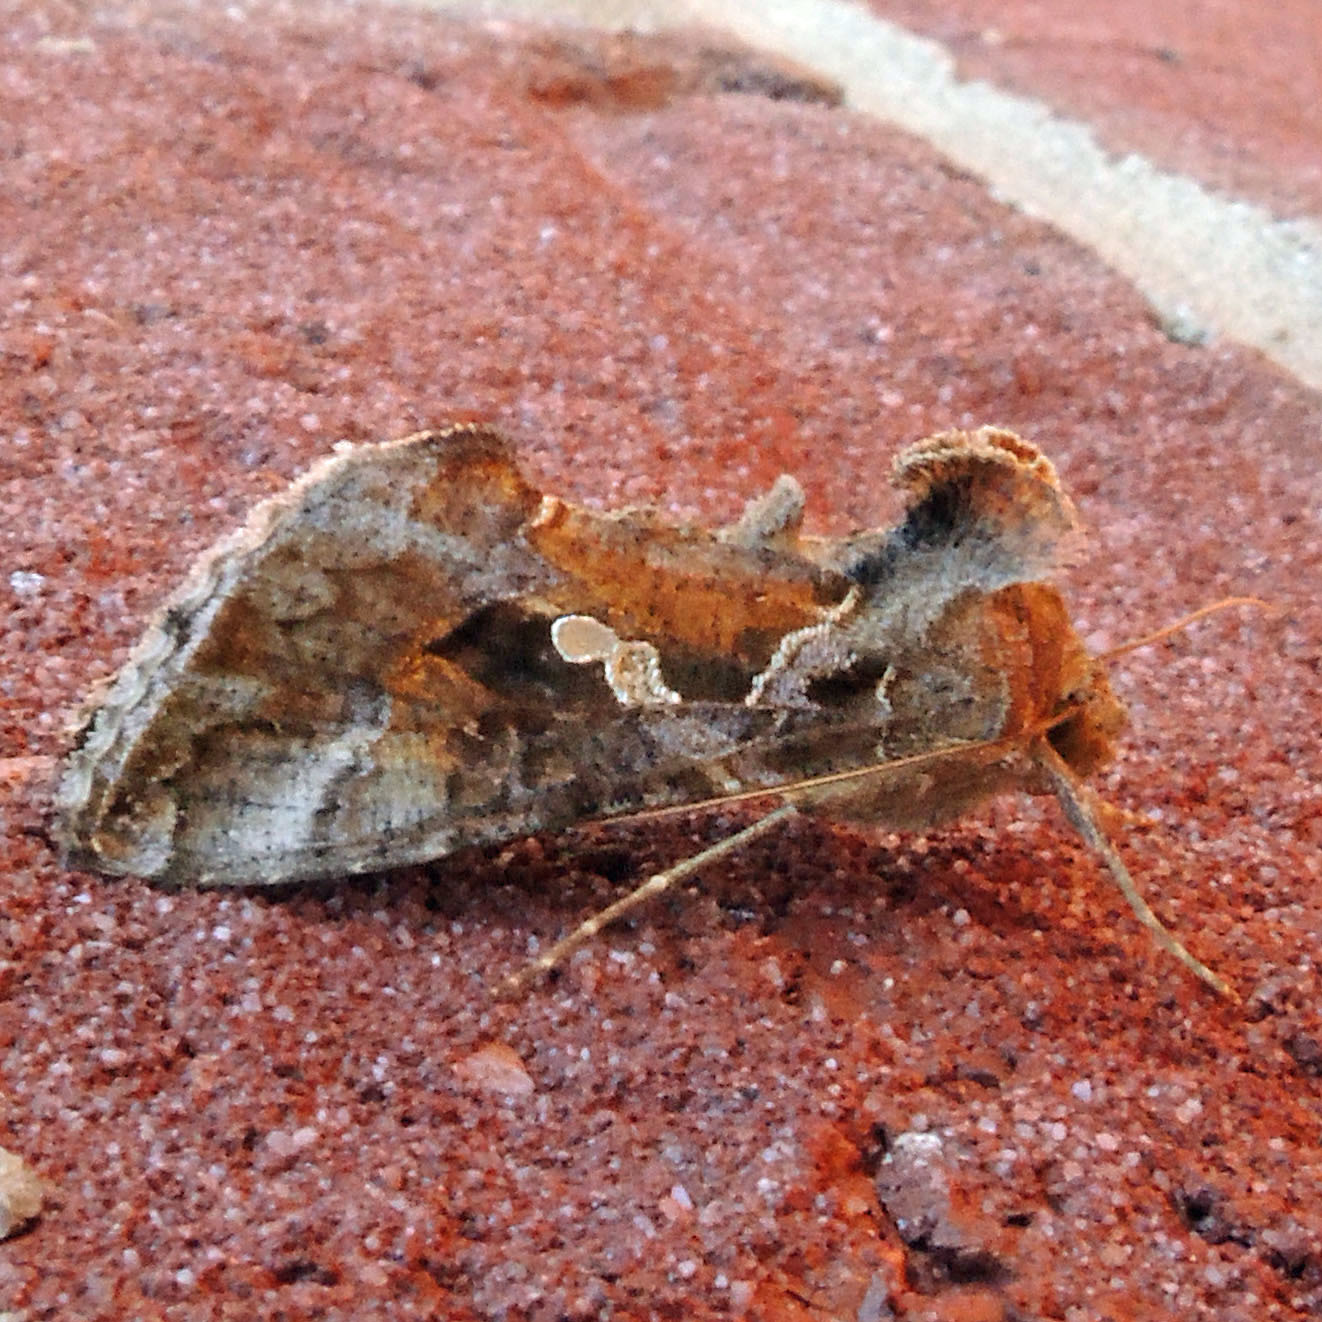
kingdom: Animalia
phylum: Arthropoda
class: Insecta
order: Lepidoptera
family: Noctuidae
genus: Chrysodeixis
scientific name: Chrysodeixis includens
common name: Cutworm moth
